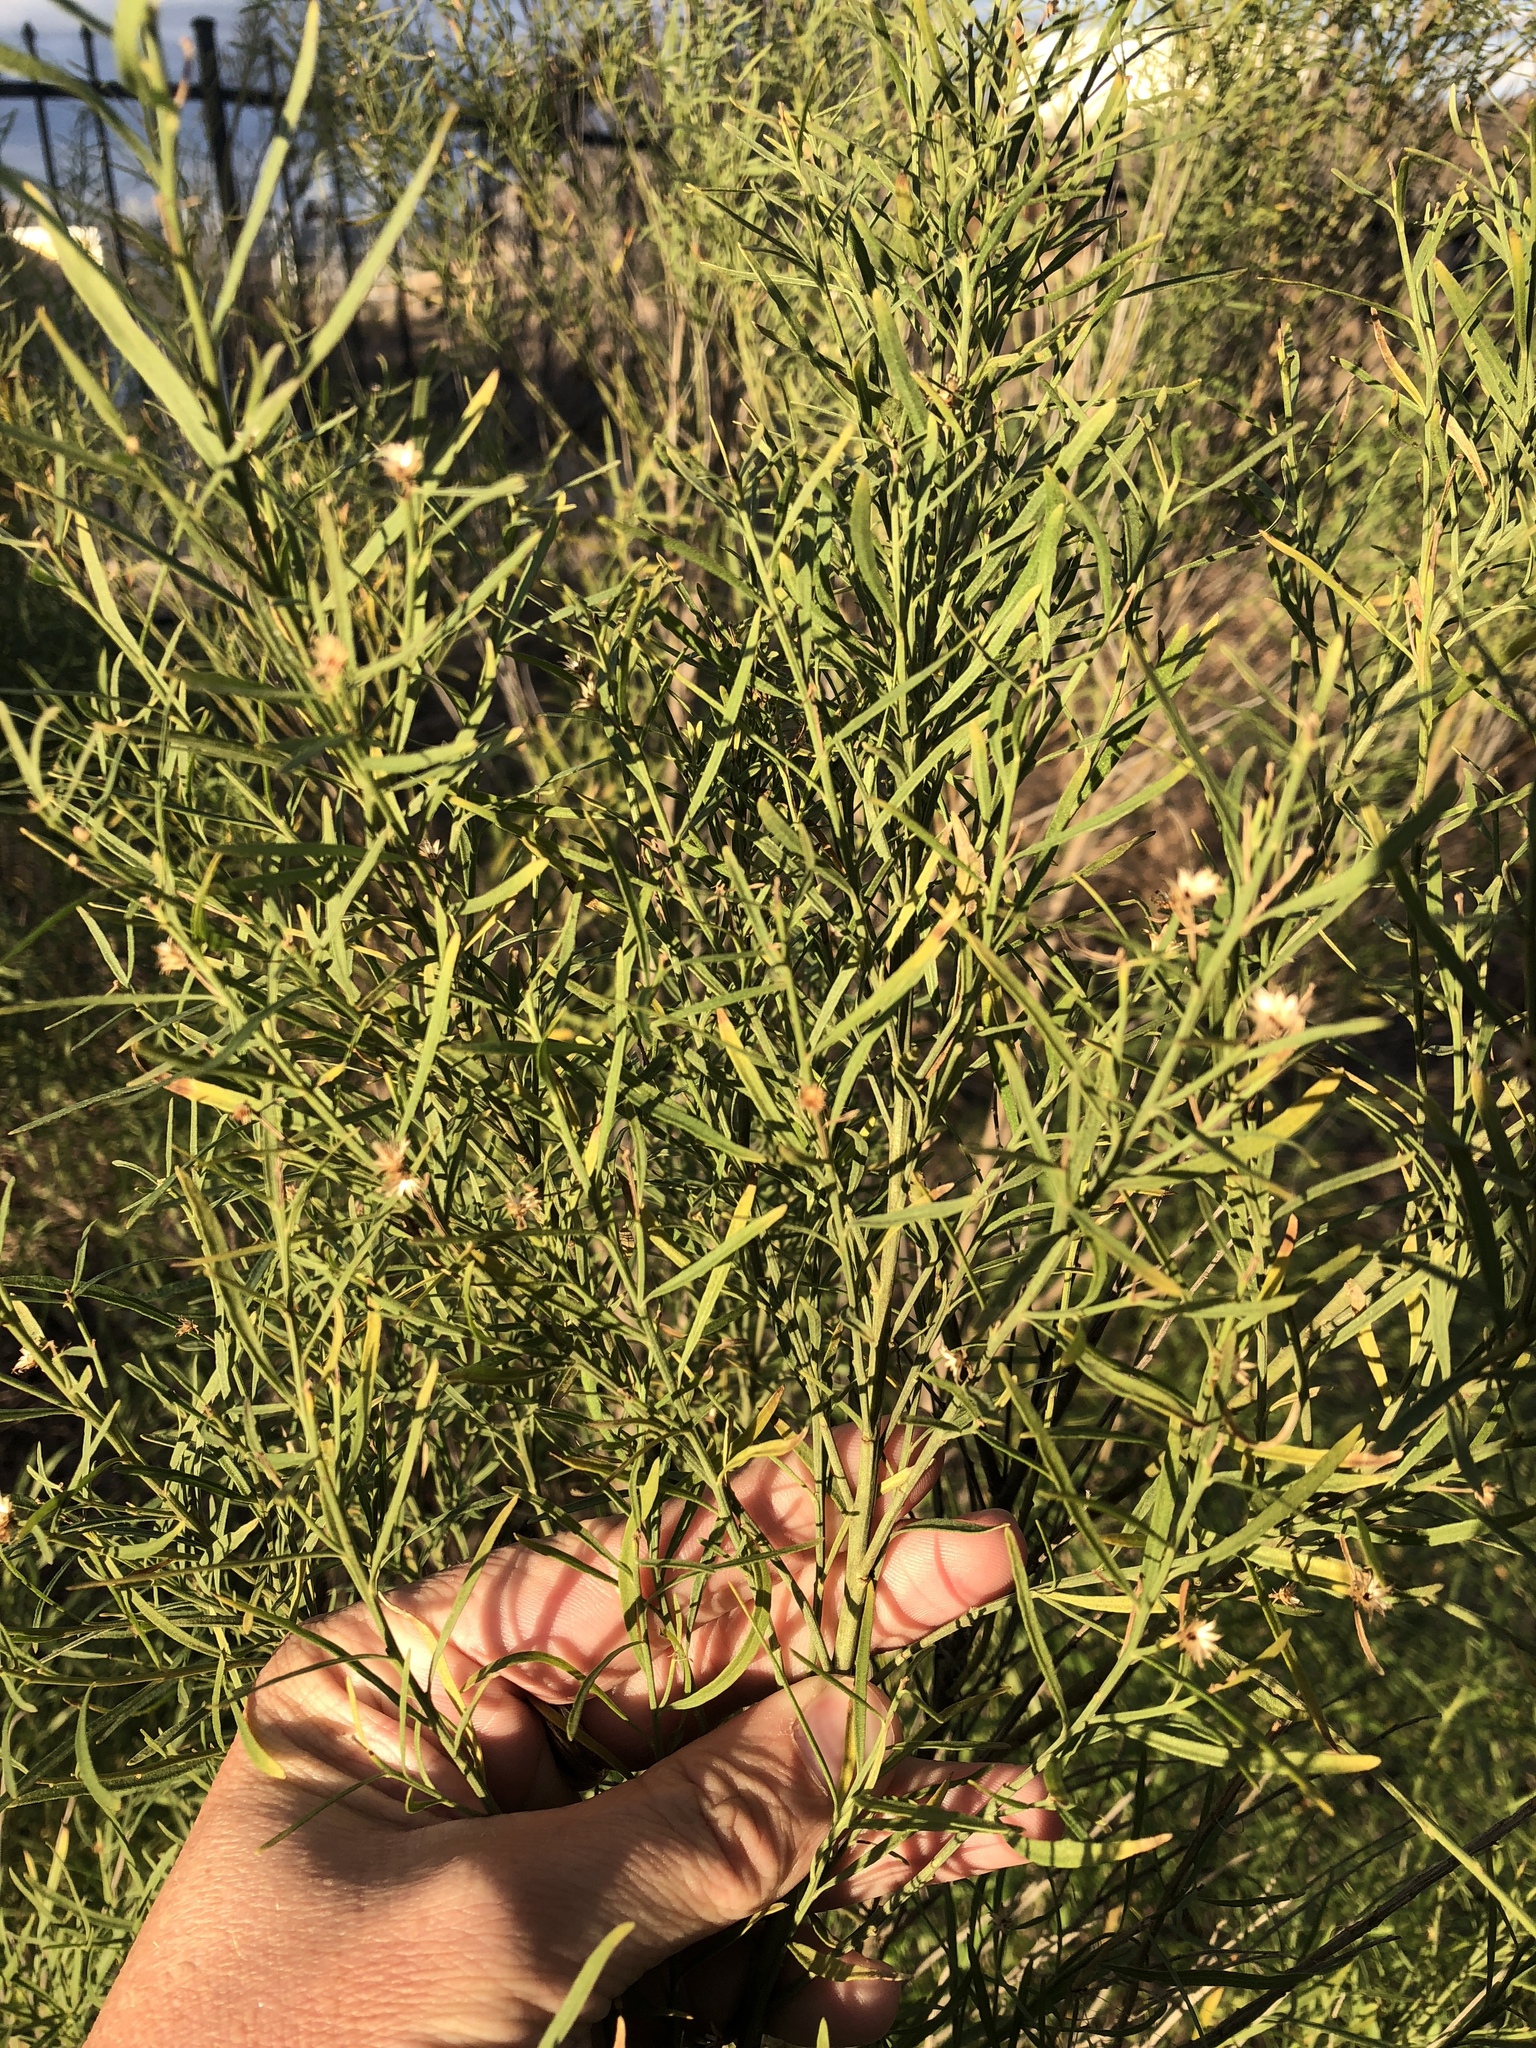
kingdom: Plantae
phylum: Tracheophyta
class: Magnoliopsida
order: Asterales
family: Asteraceae
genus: Baccharis
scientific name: Baccharis neglecta
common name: Roosevelt-weed
